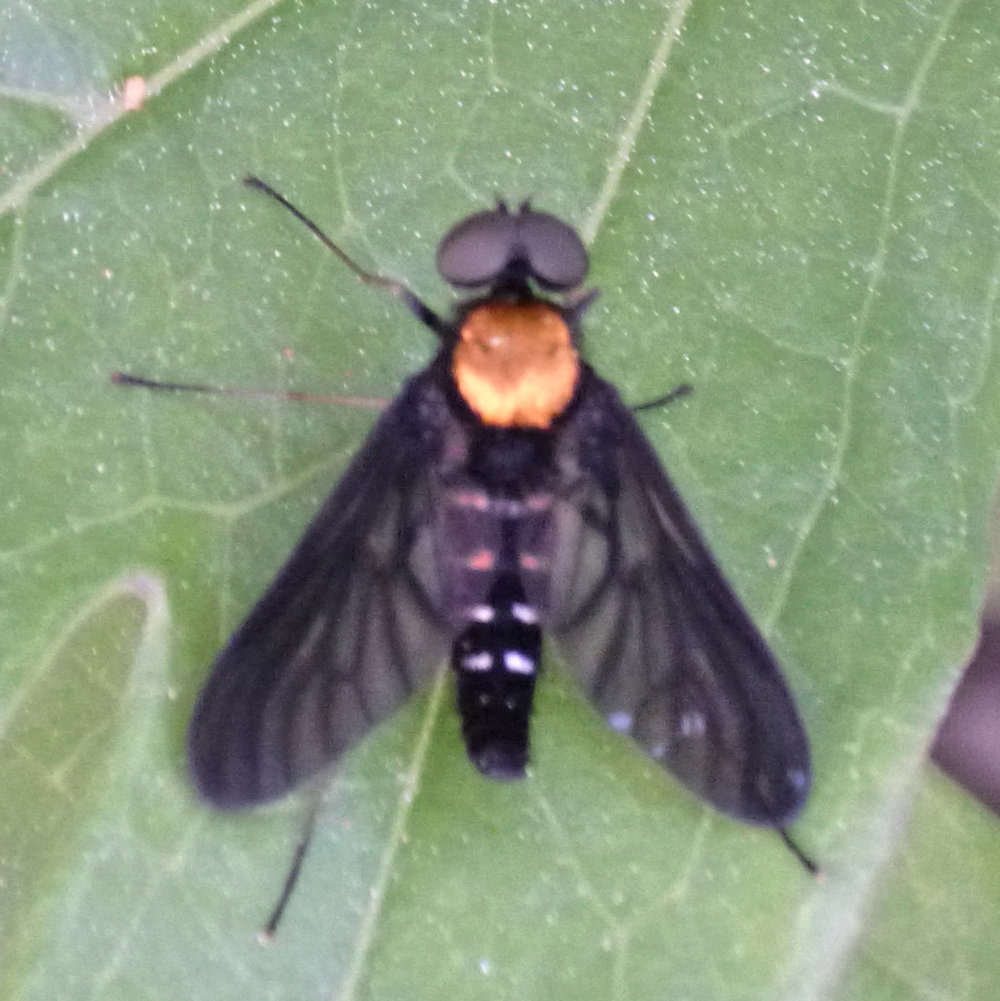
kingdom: Animalia
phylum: Arthropoda
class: Insecta
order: Diptera
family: Rhagionidae
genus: Chrysopilus
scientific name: Chrysopilus thoracicus
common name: Golden-backed snipe fly
